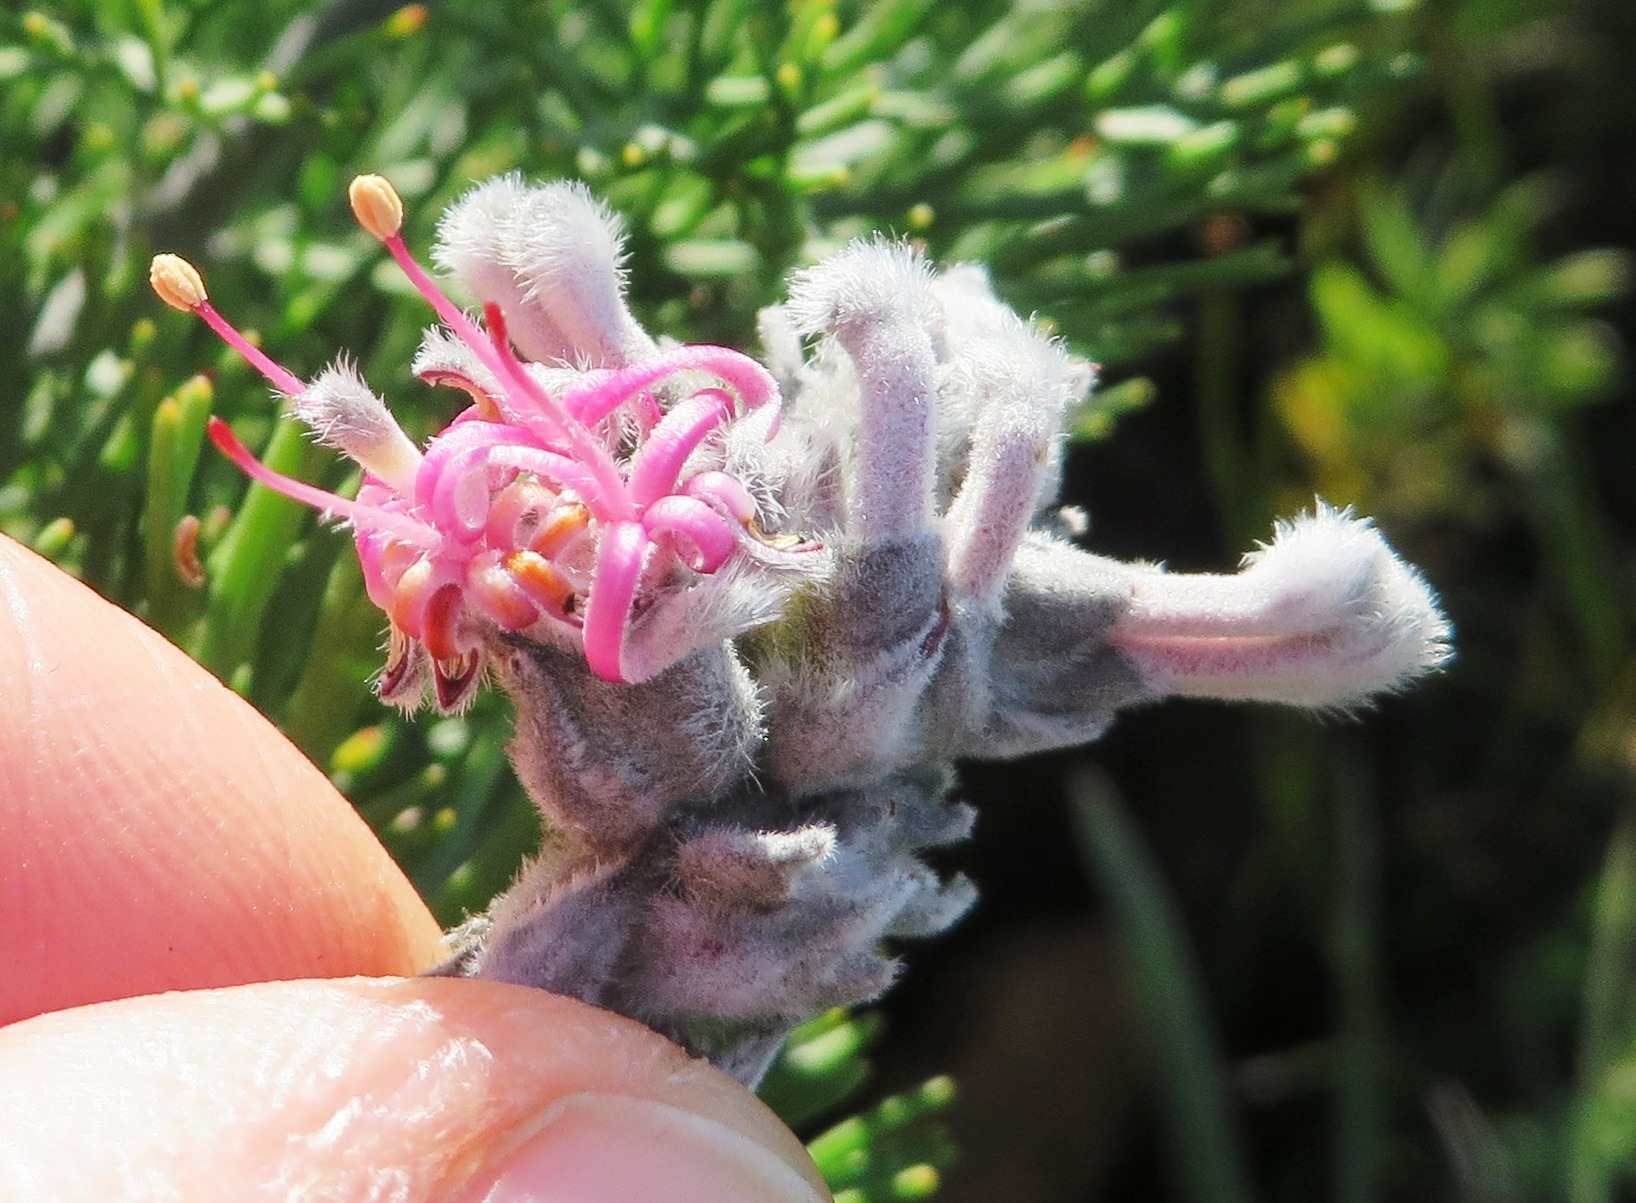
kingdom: Plantae
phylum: Tracheophyta
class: Magnoliopsida
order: Proteales
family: Proteaceae
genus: Paranomus
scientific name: Paranomus bolusii
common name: Overberg sceptre
